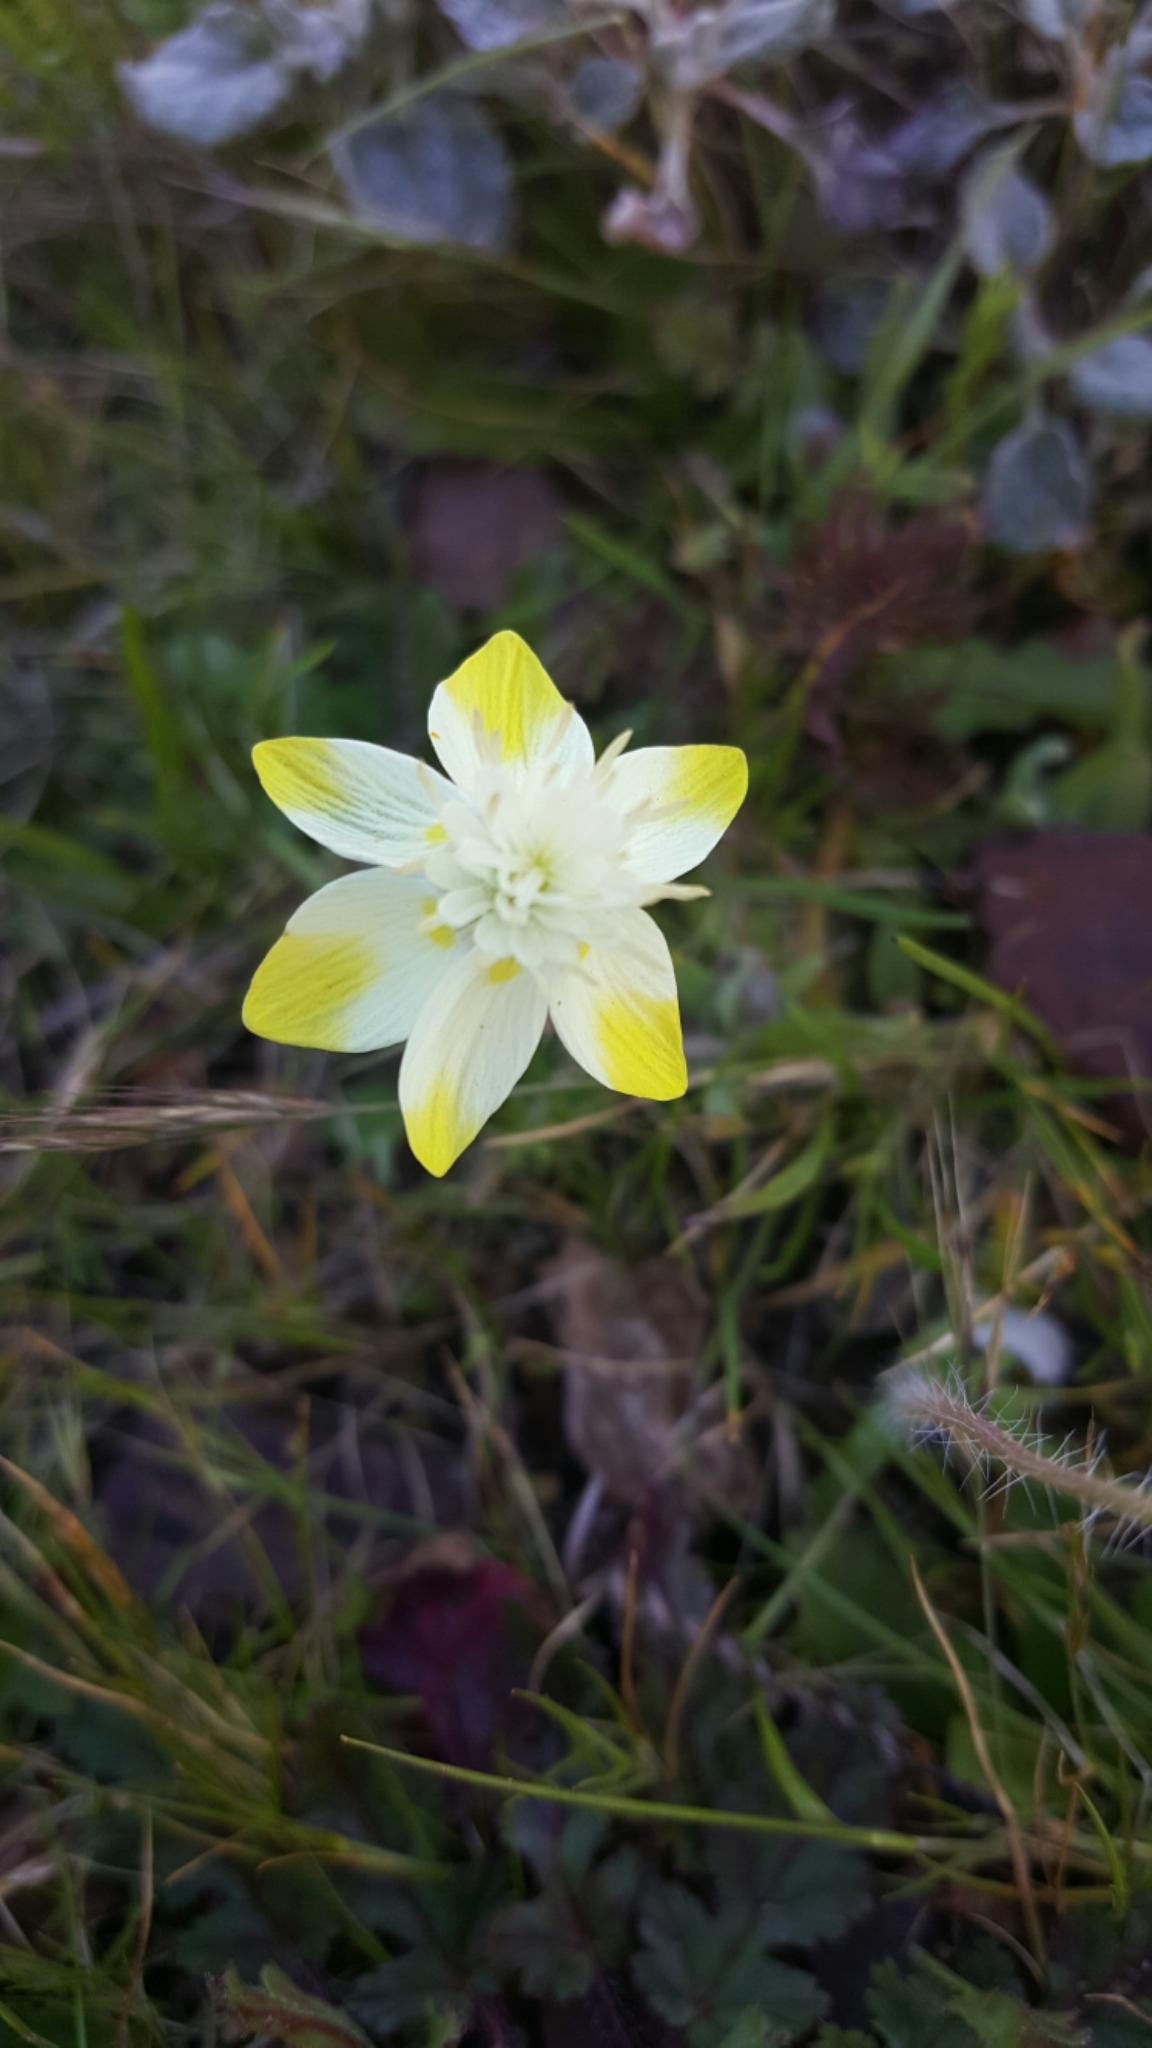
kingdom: Plantae
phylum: Tracheophyta
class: Magnoliopsida
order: Ranunculales
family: Papaveraceae
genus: Platystemon
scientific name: Platystemon californicus
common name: Cream-cups
